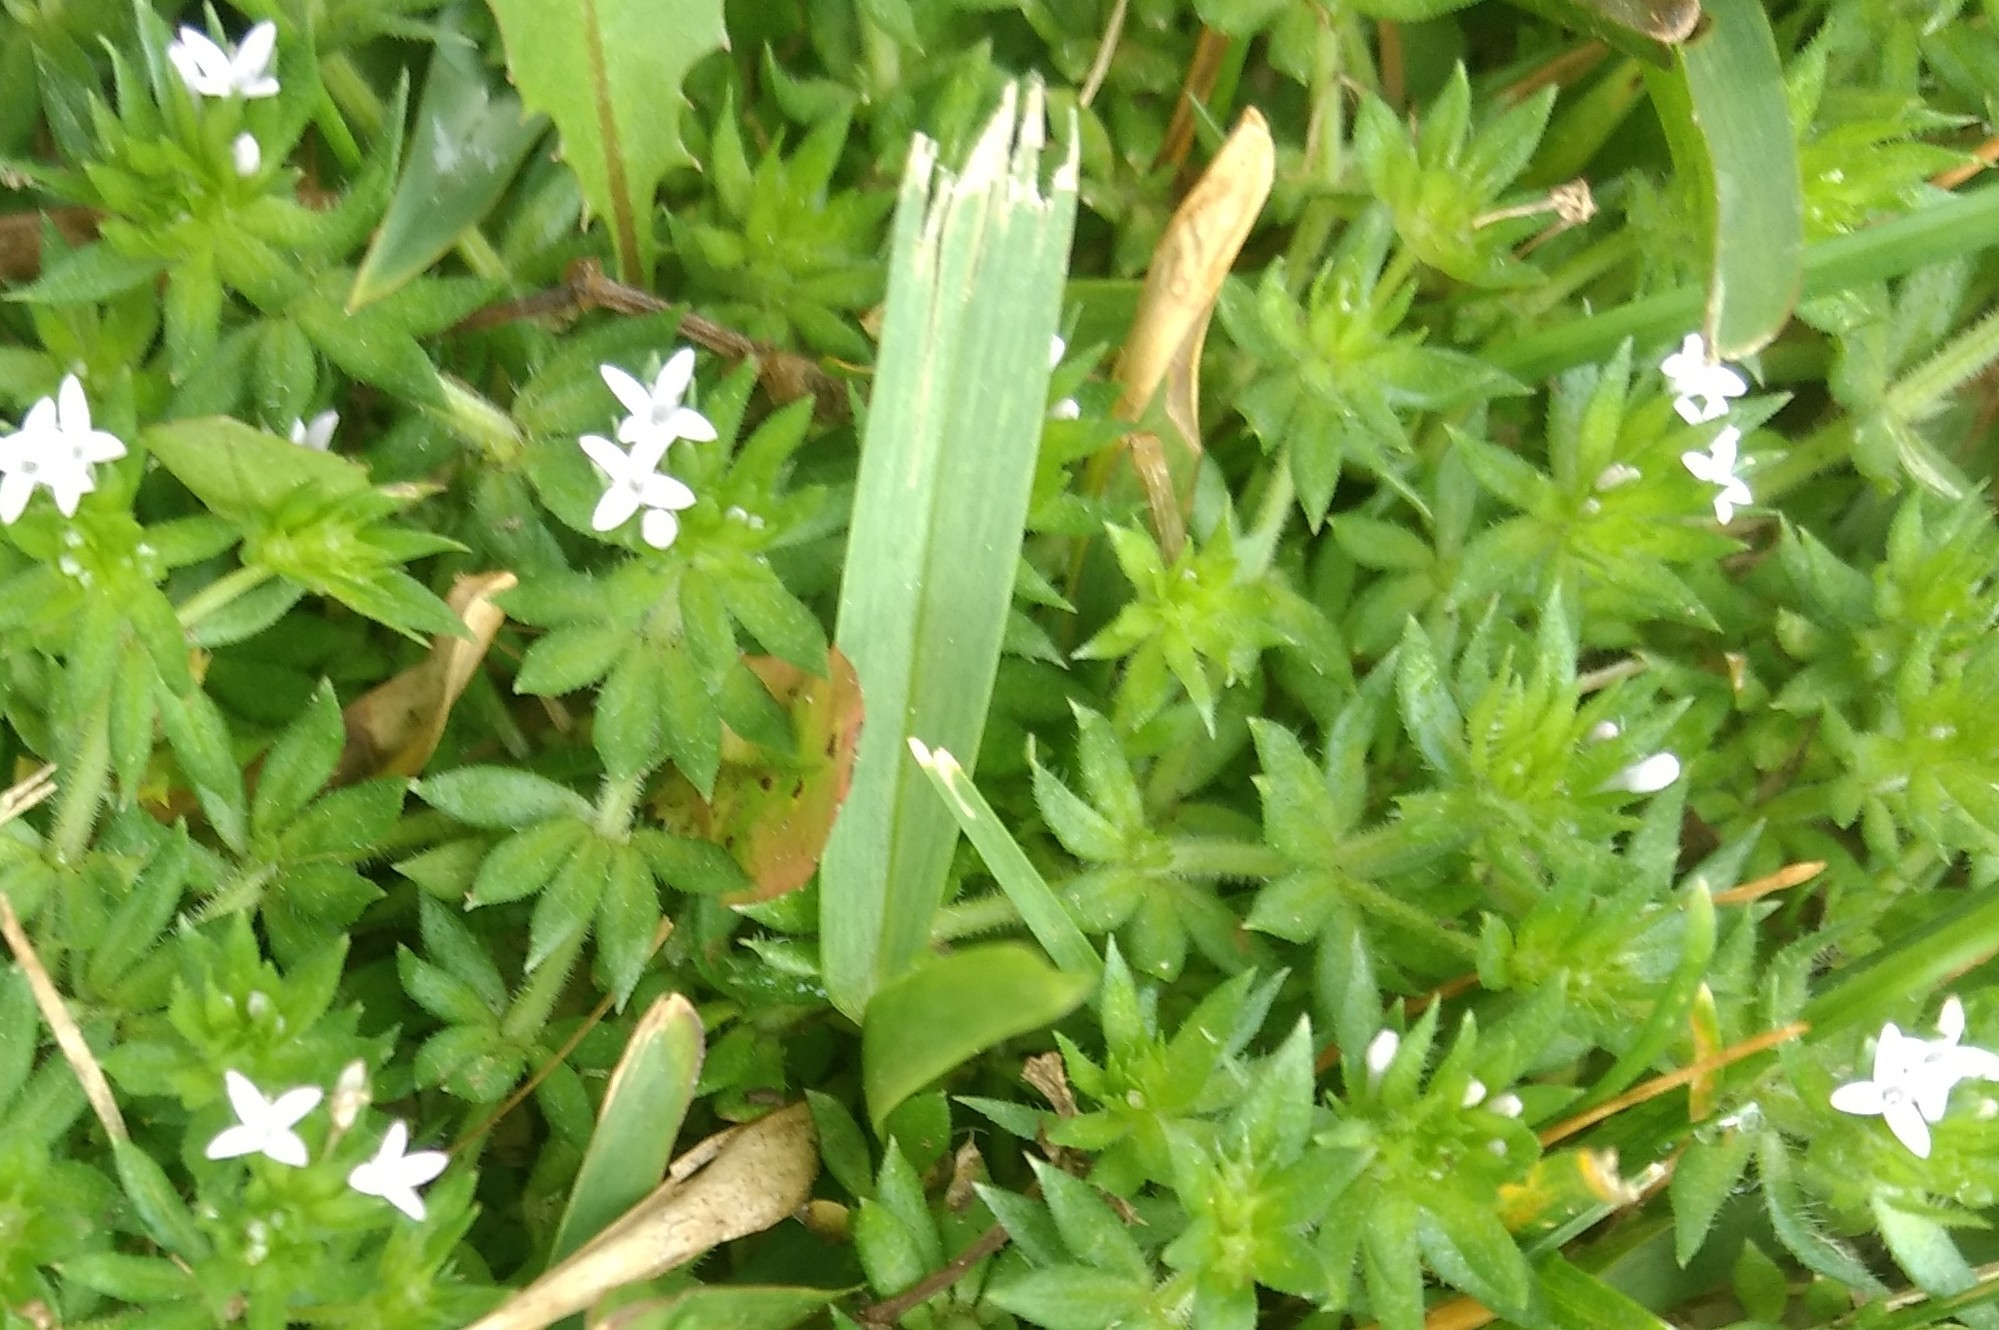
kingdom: Plantae
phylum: Tracheophyta
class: Magnoliopsida
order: Gentianales
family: Rubiaceae
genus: Sherardia
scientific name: Sherardia arvensis
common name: Field madder
